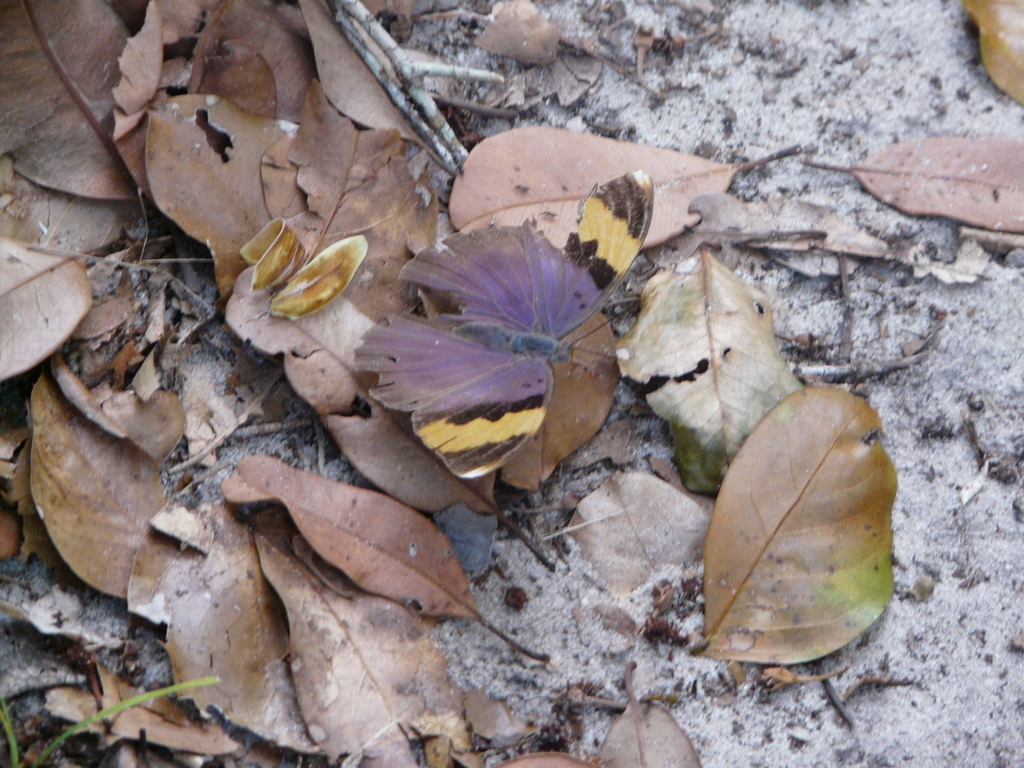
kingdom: Animalia
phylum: Arthropoda
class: Insecta
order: Lepidoptera
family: Nymphalidae
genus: Euphaedra
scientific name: Euphaedra neophron
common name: Gold-banded forester
